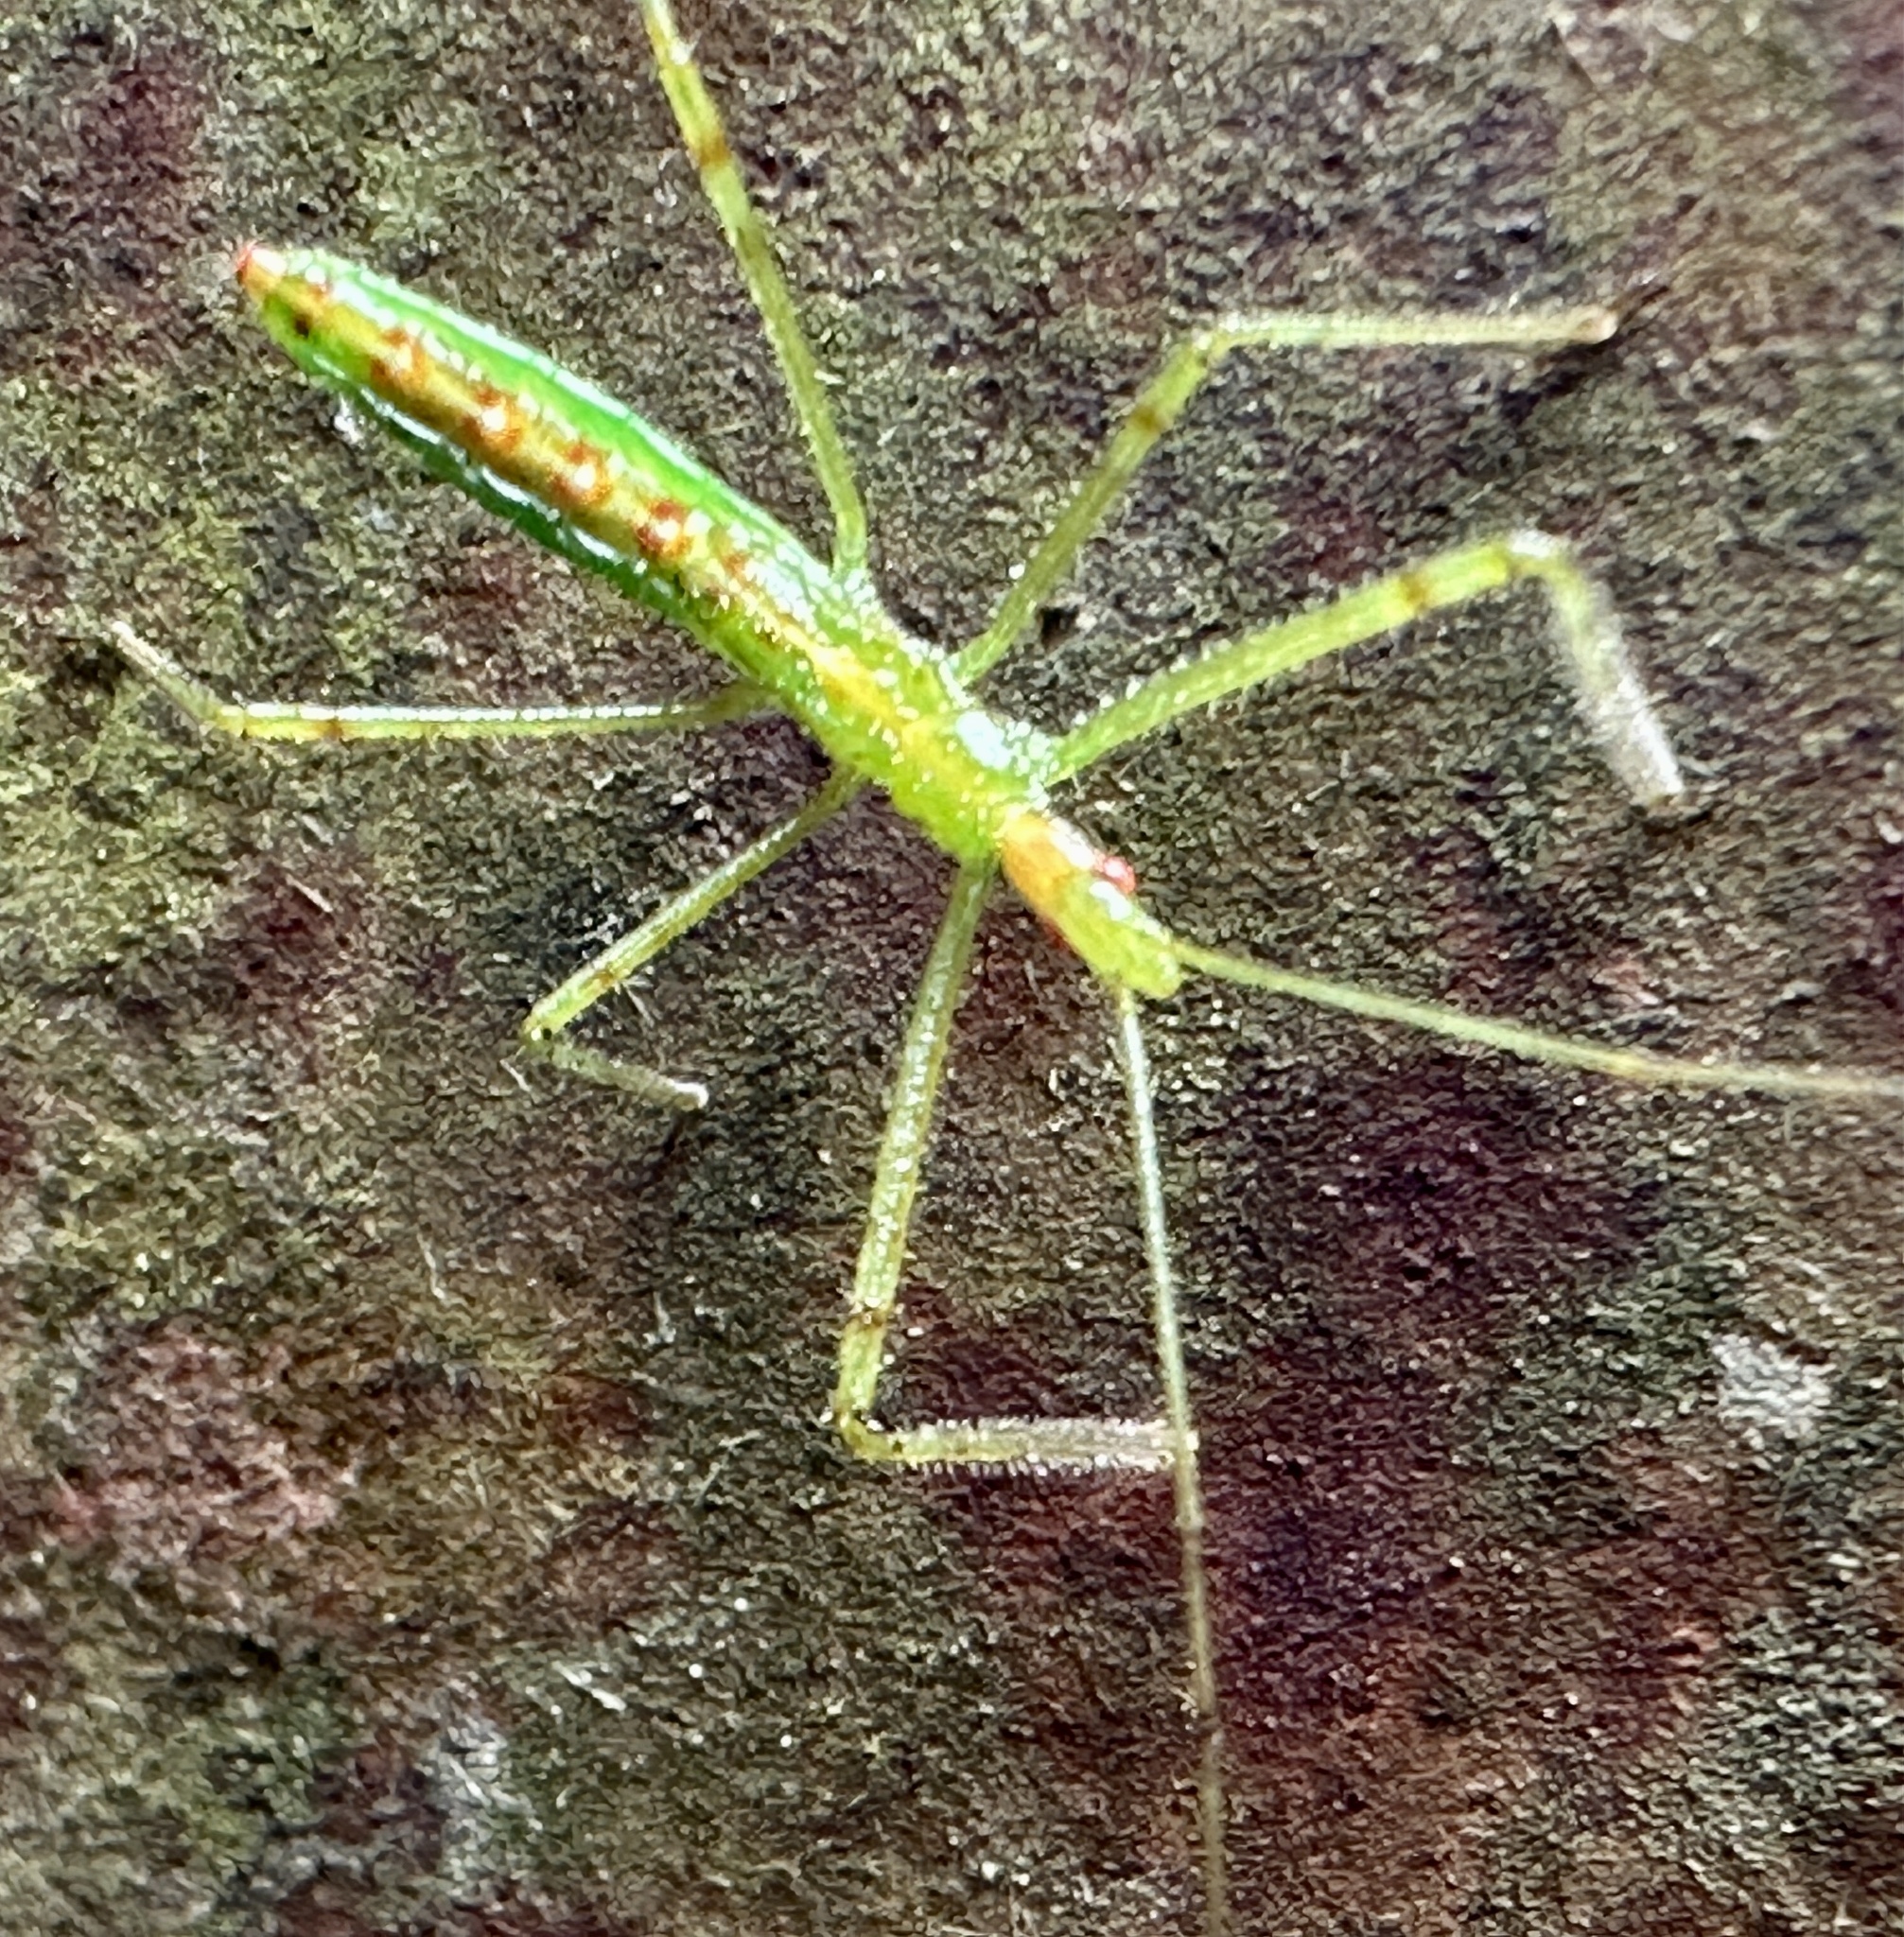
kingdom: Animalia
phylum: Arthropoda
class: Insecta
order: Hemiptera
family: Reduviidae
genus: Zelus
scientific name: Zelus luridus
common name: Pale green assassin bug
